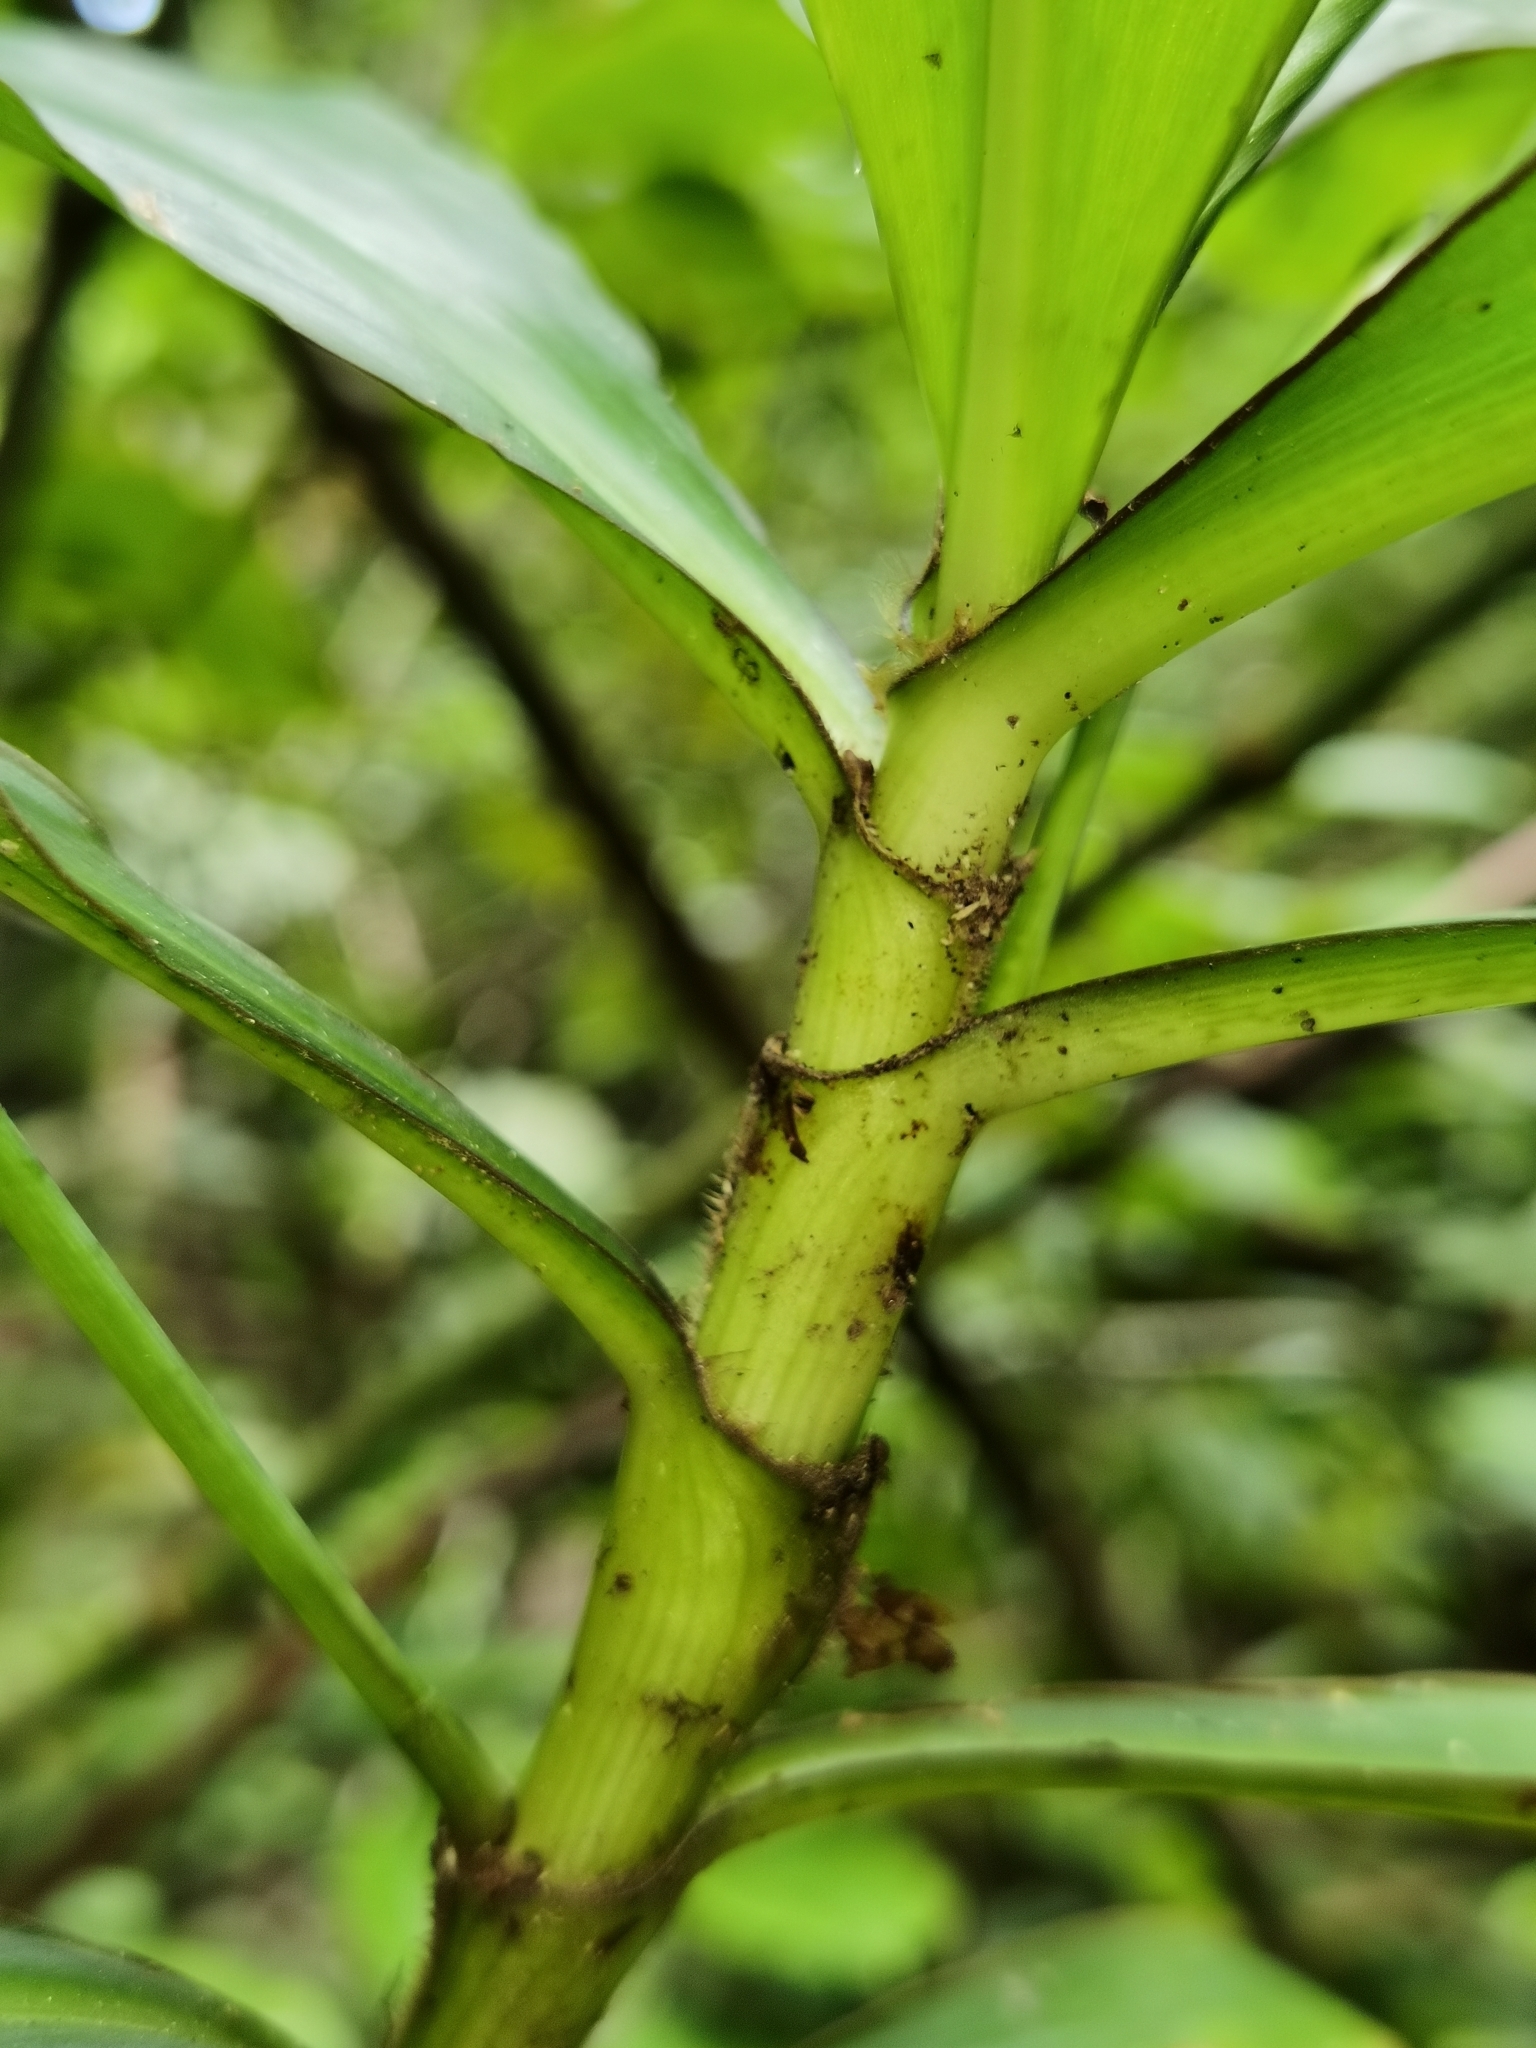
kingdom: Plantae
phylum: Tracheophyta
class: Liliopsida
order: Commelinales
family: Commelinaceae
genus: Tradescantia
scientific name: Tradescantia zanonia
